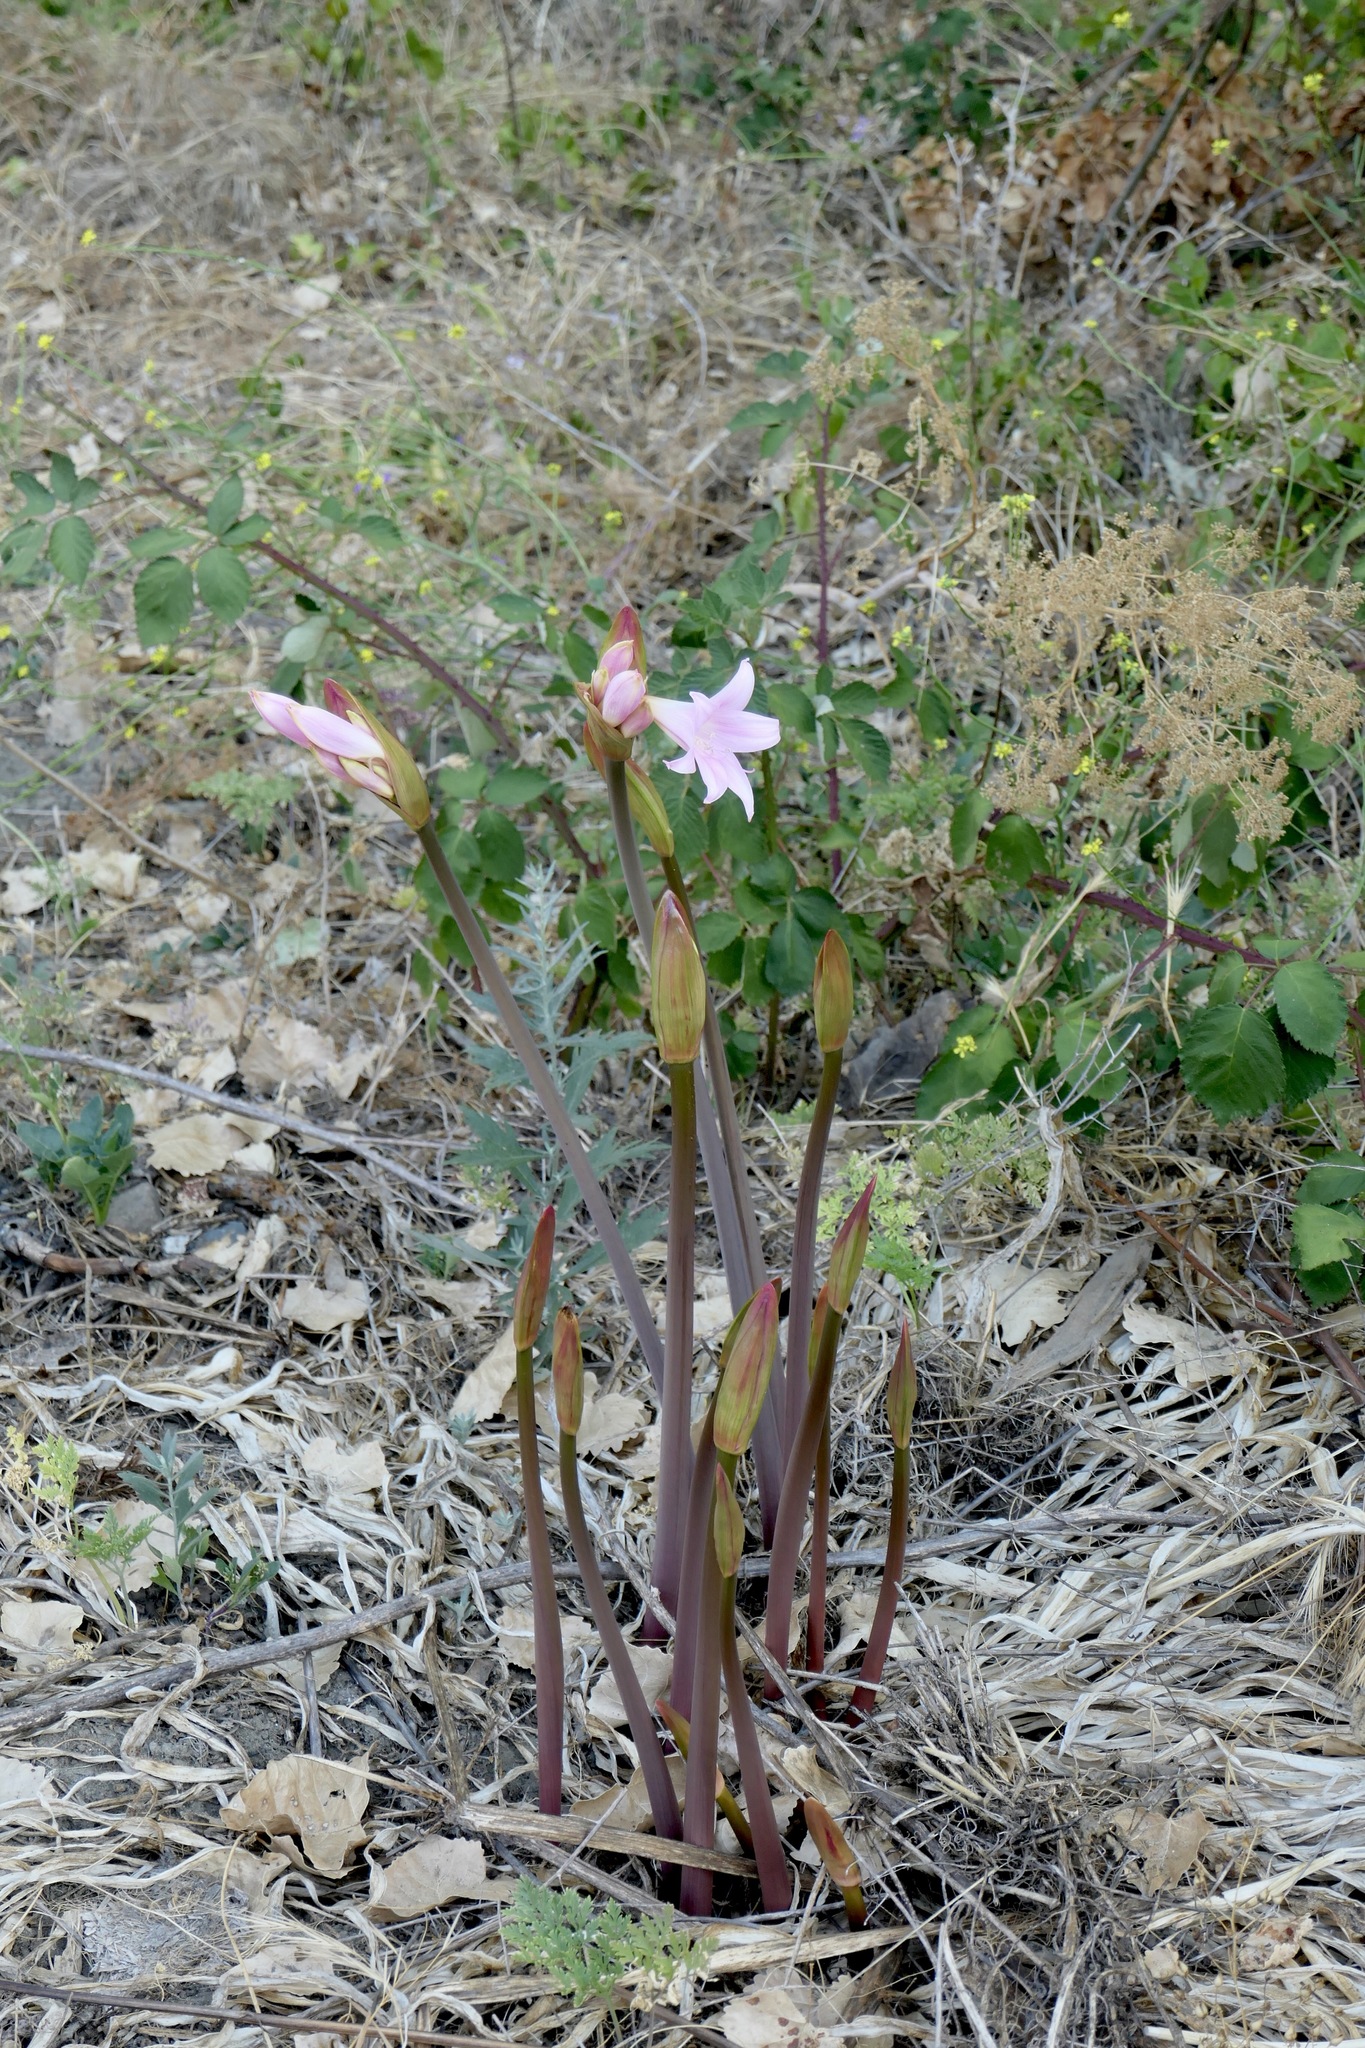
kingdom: Plantae
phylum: Tracheophyta
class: Liliopsida
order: Asparagales
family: Amaryllidaceae
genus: Amaryllis
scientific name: Amaryllis belladonna
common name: Jersey lily
